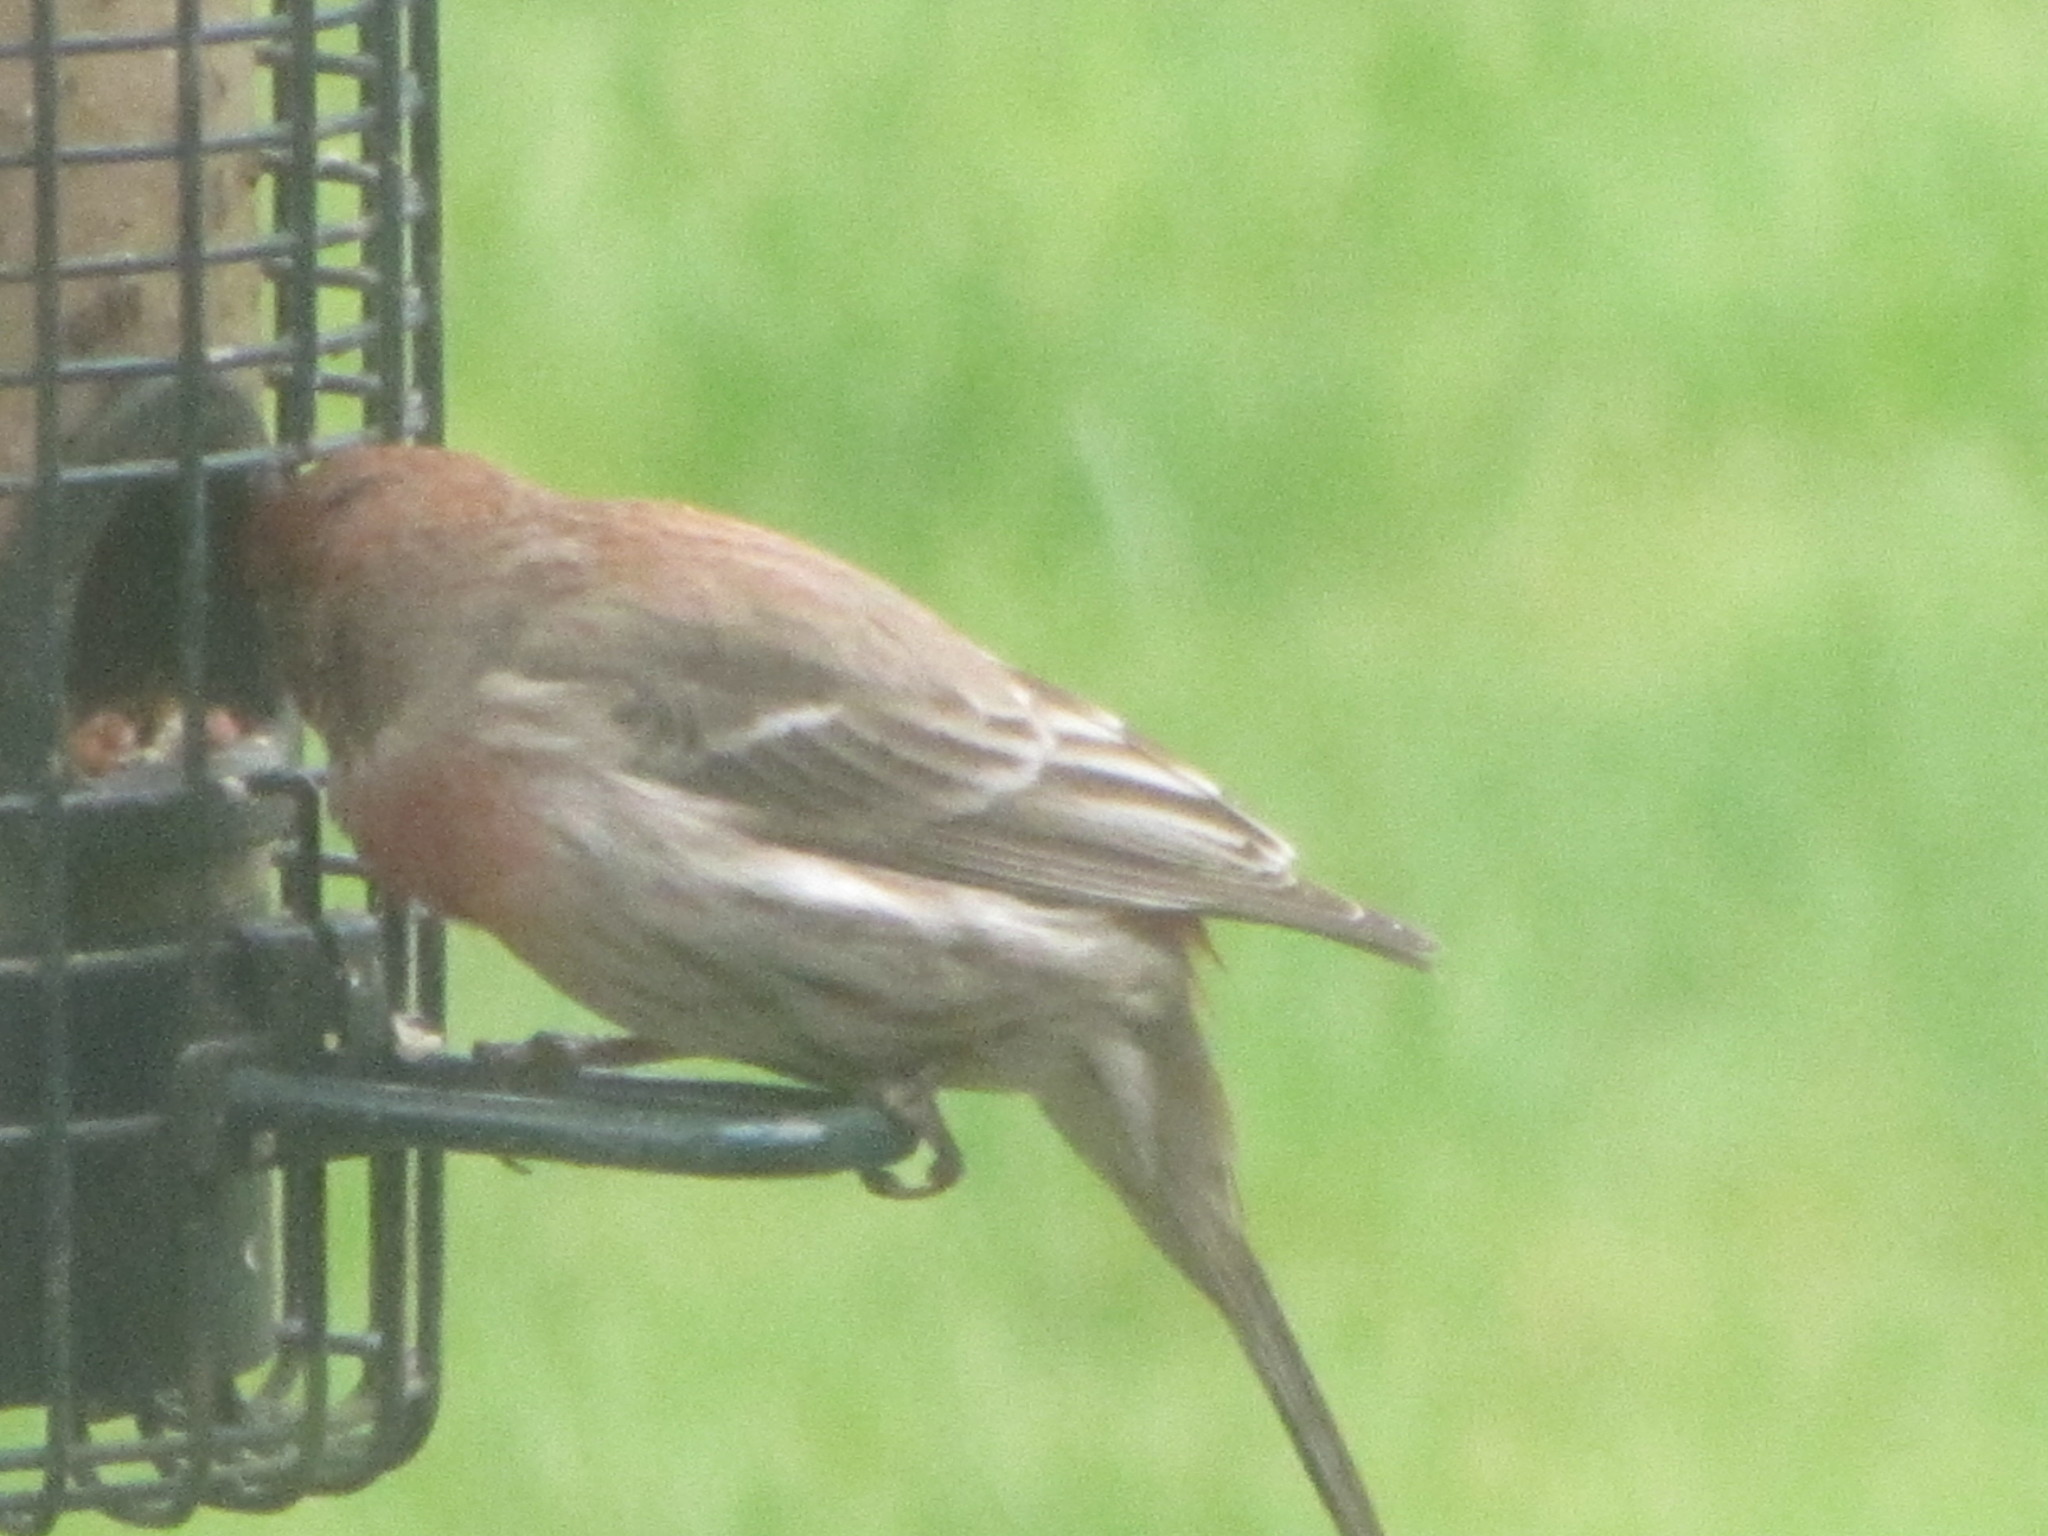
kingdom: Animalia
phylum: Chordata
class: Aves
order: Passeriformes
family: Fringillidae
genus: Haemorhous
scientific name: Haemorhous mexicanus
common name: House finch
